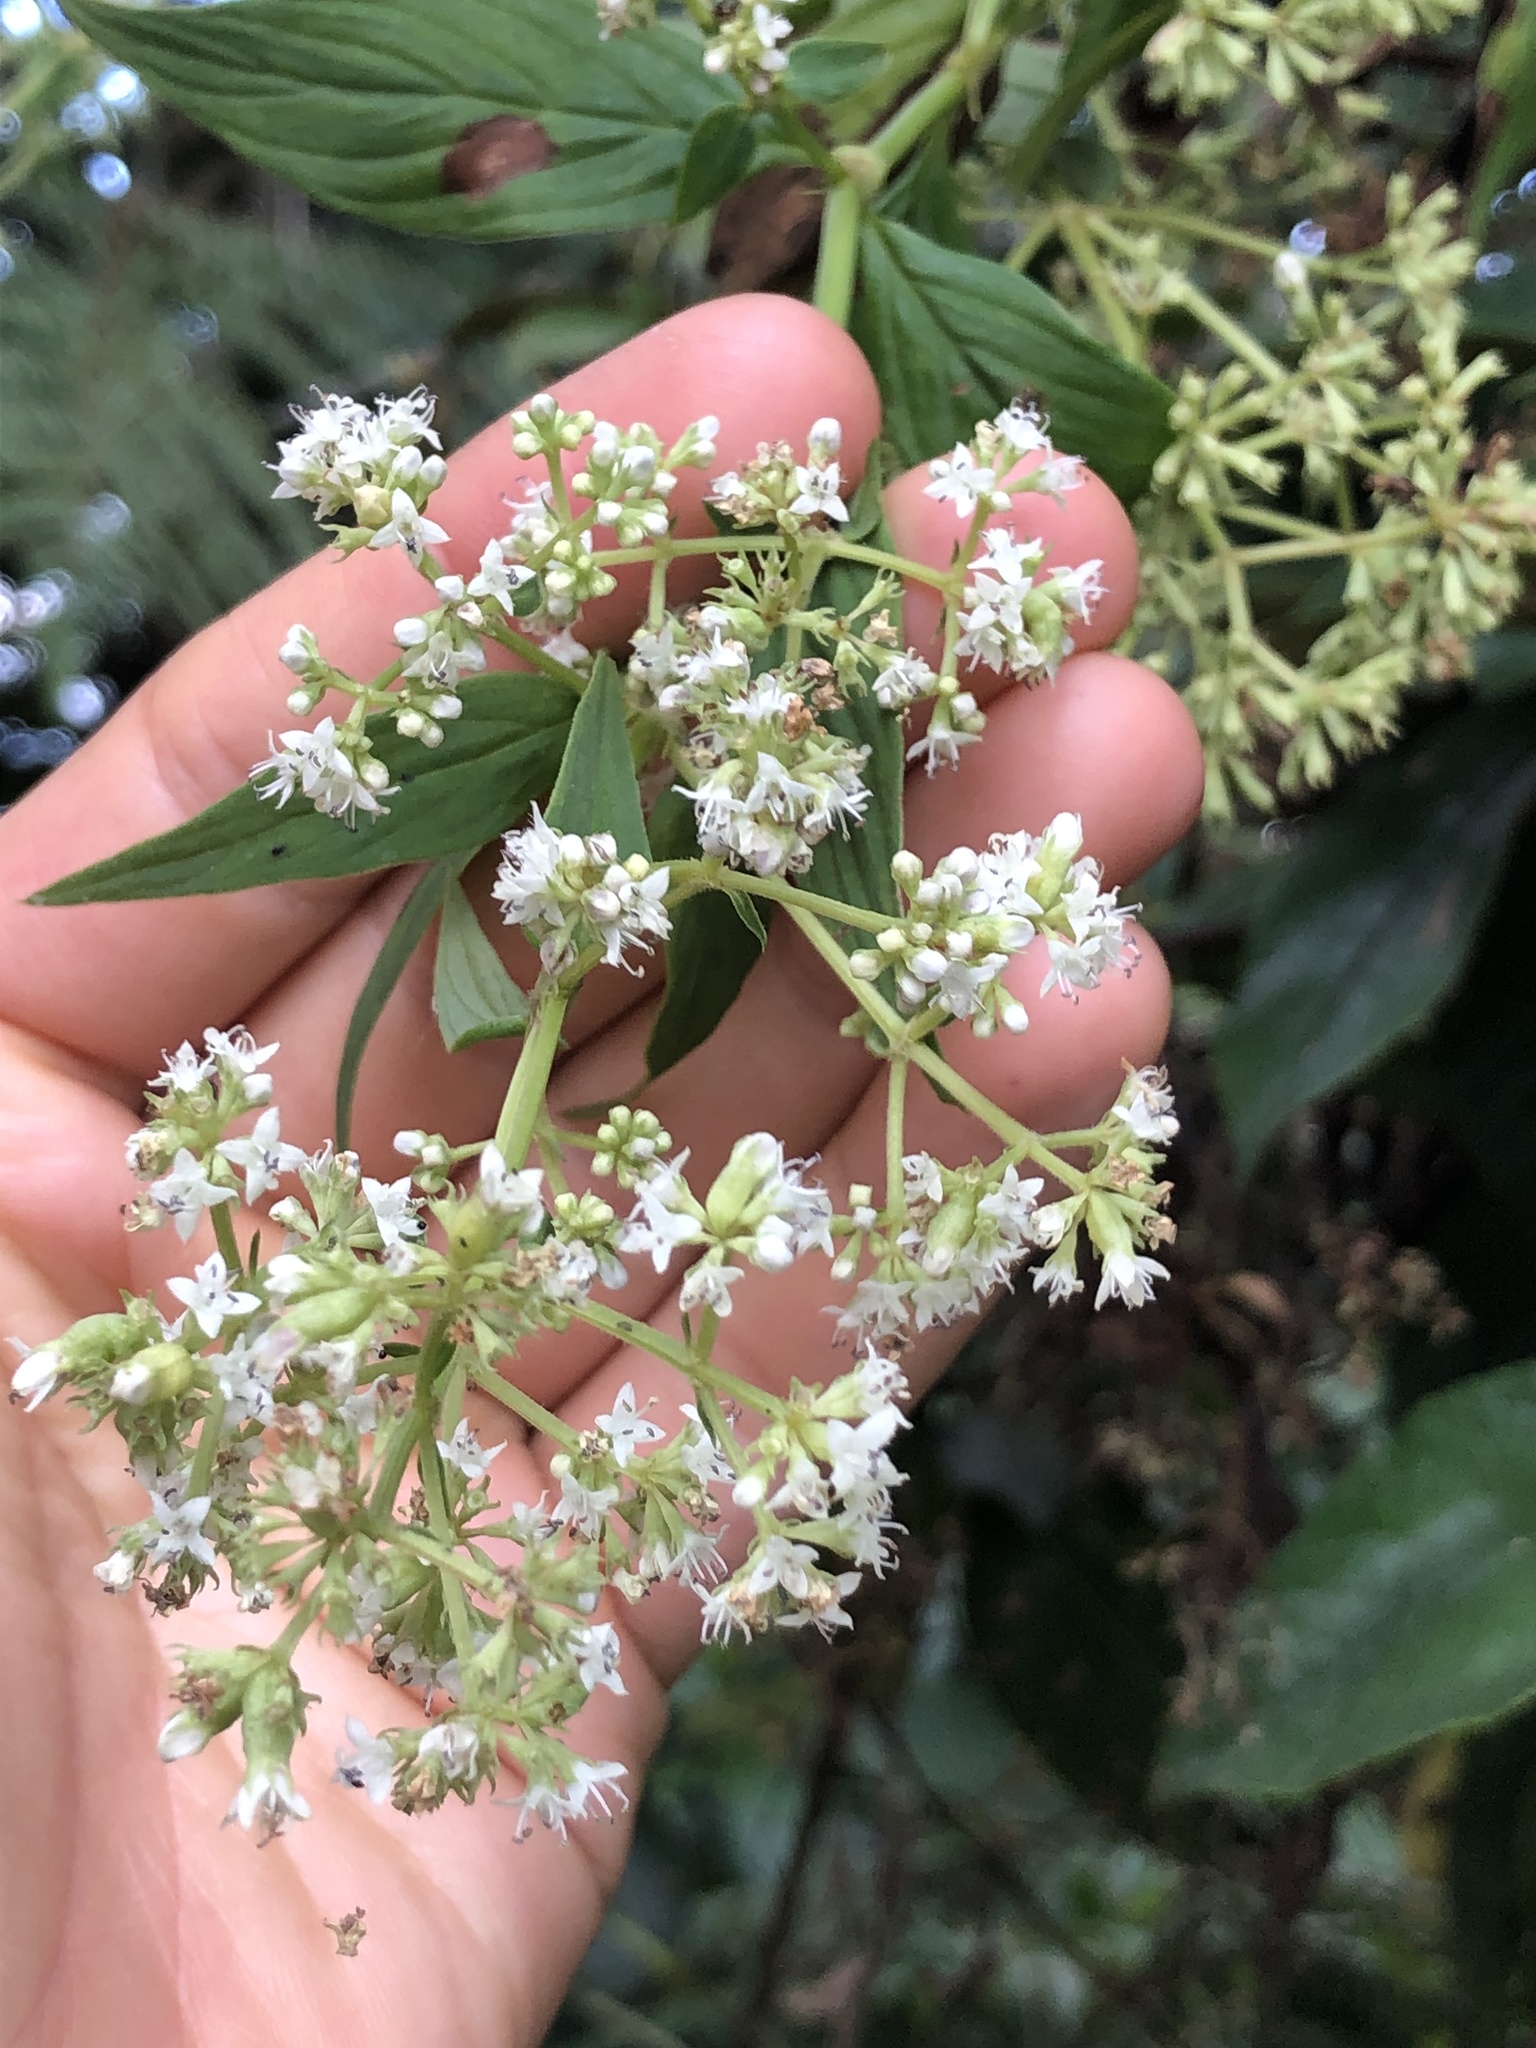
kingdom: Plantae
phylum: Tracheophyta
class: Magnoliopsida
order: Gentianales
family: Rubiaceae
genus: Emmeorhiza
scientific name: Emmeorhiza umbellata
